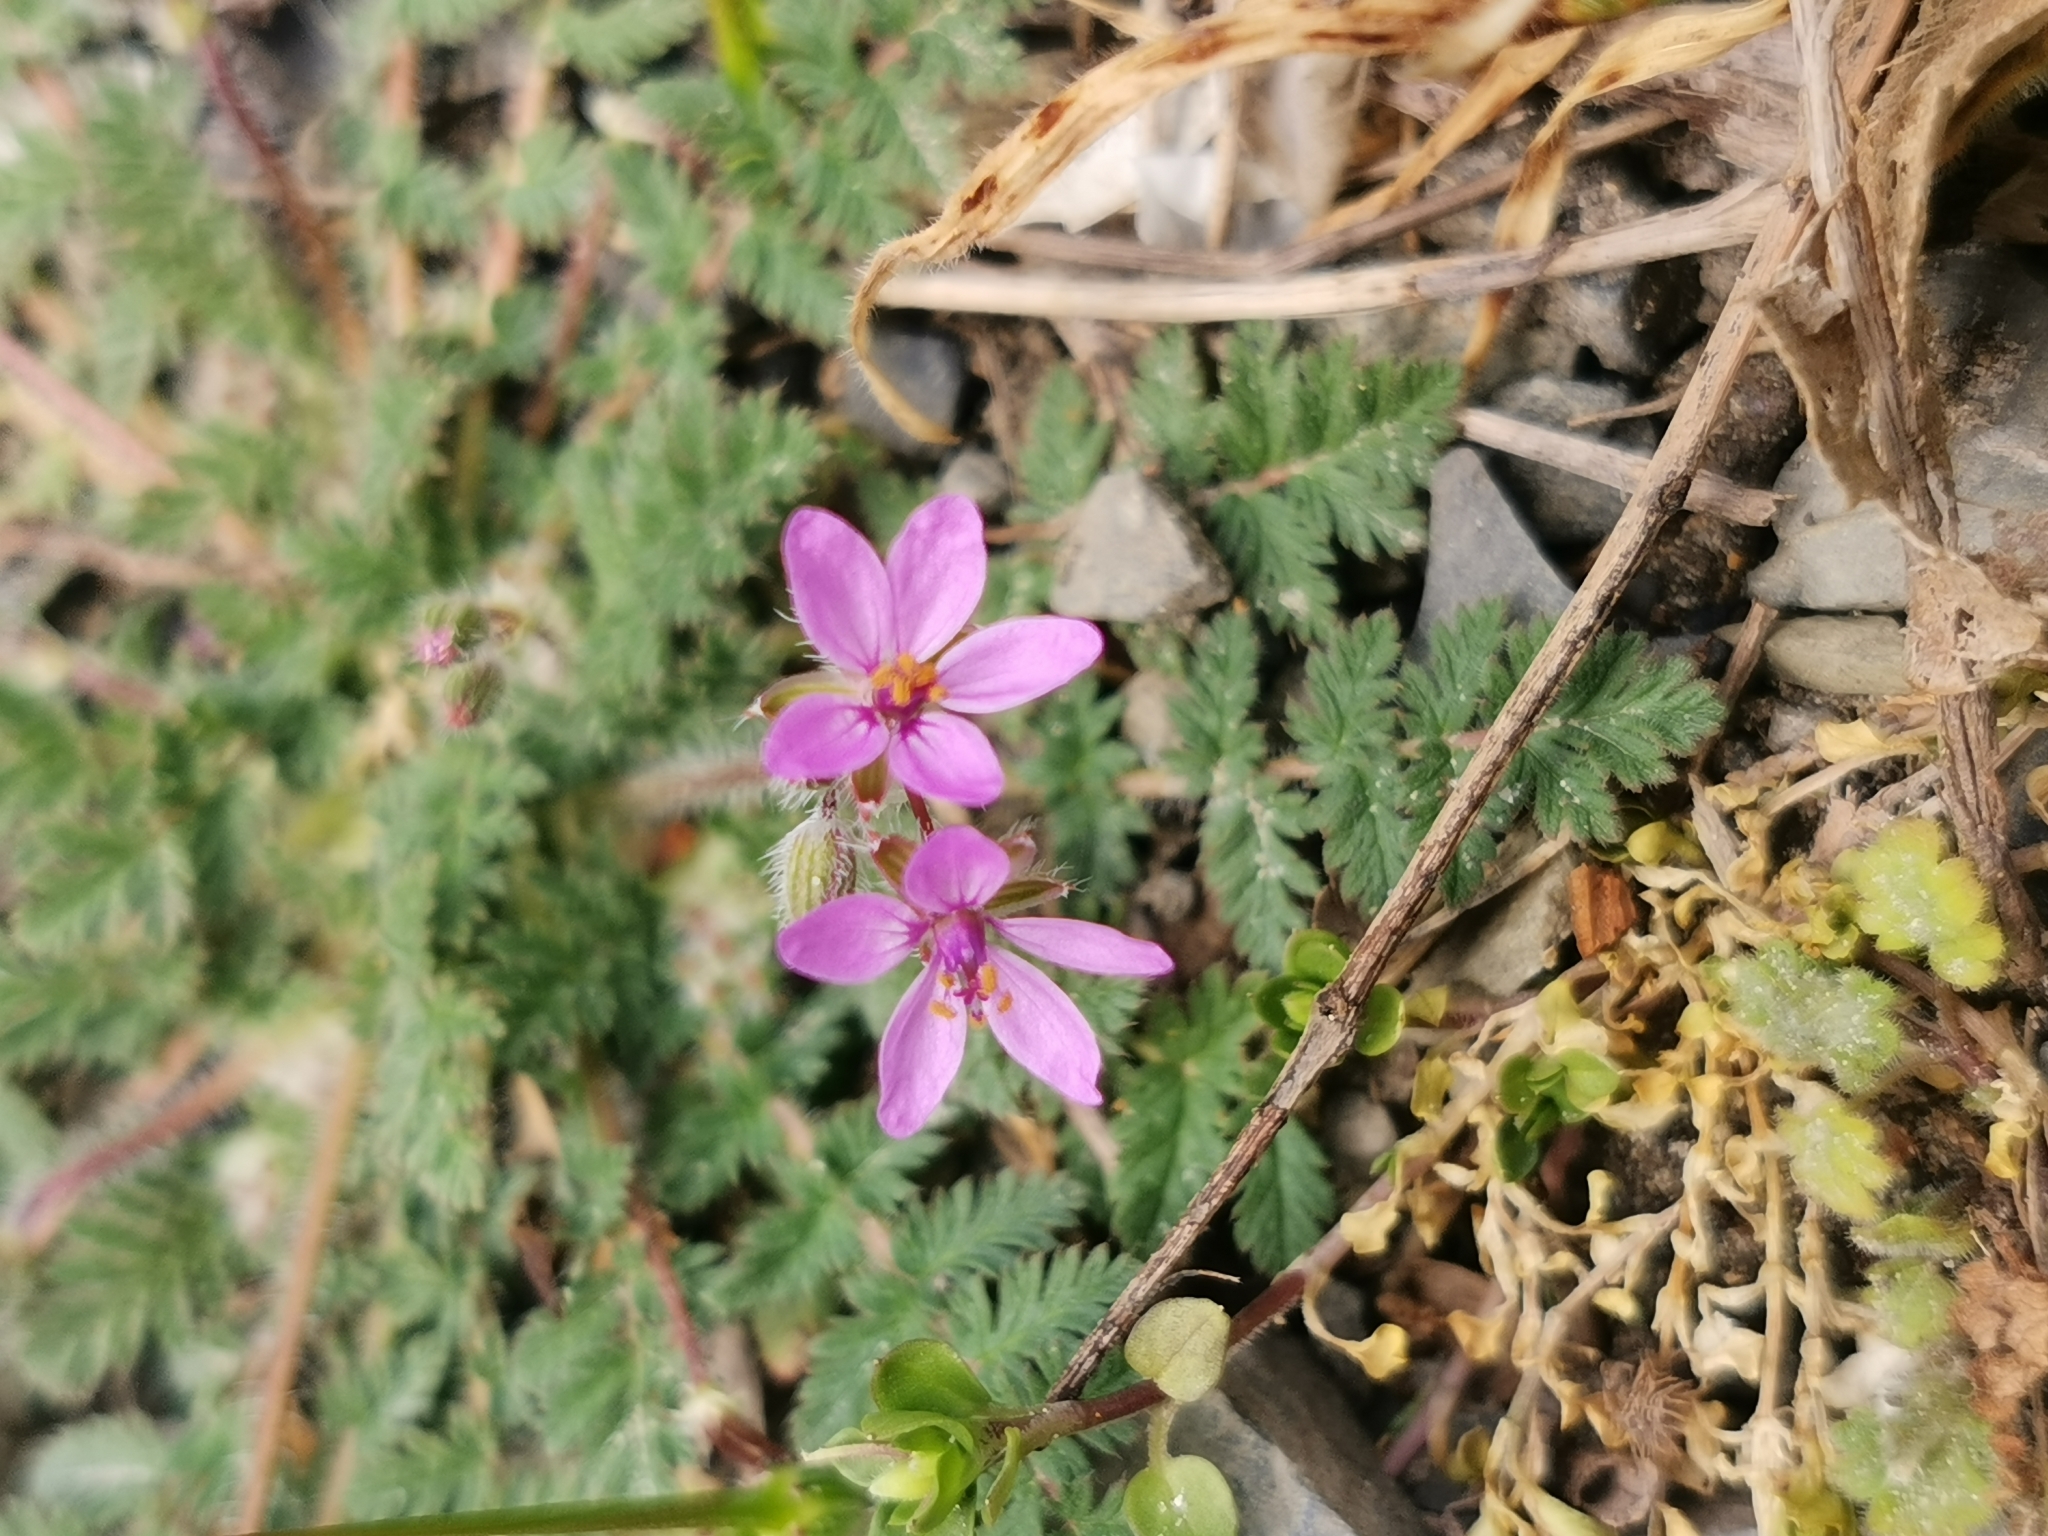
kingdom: Plantae
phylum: Tracheophyta
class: Magnoliopsida
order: Geraniales
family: Geraniaceae
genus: Erodium
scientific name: Erodium cicutarium
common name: Common stork's-bill
